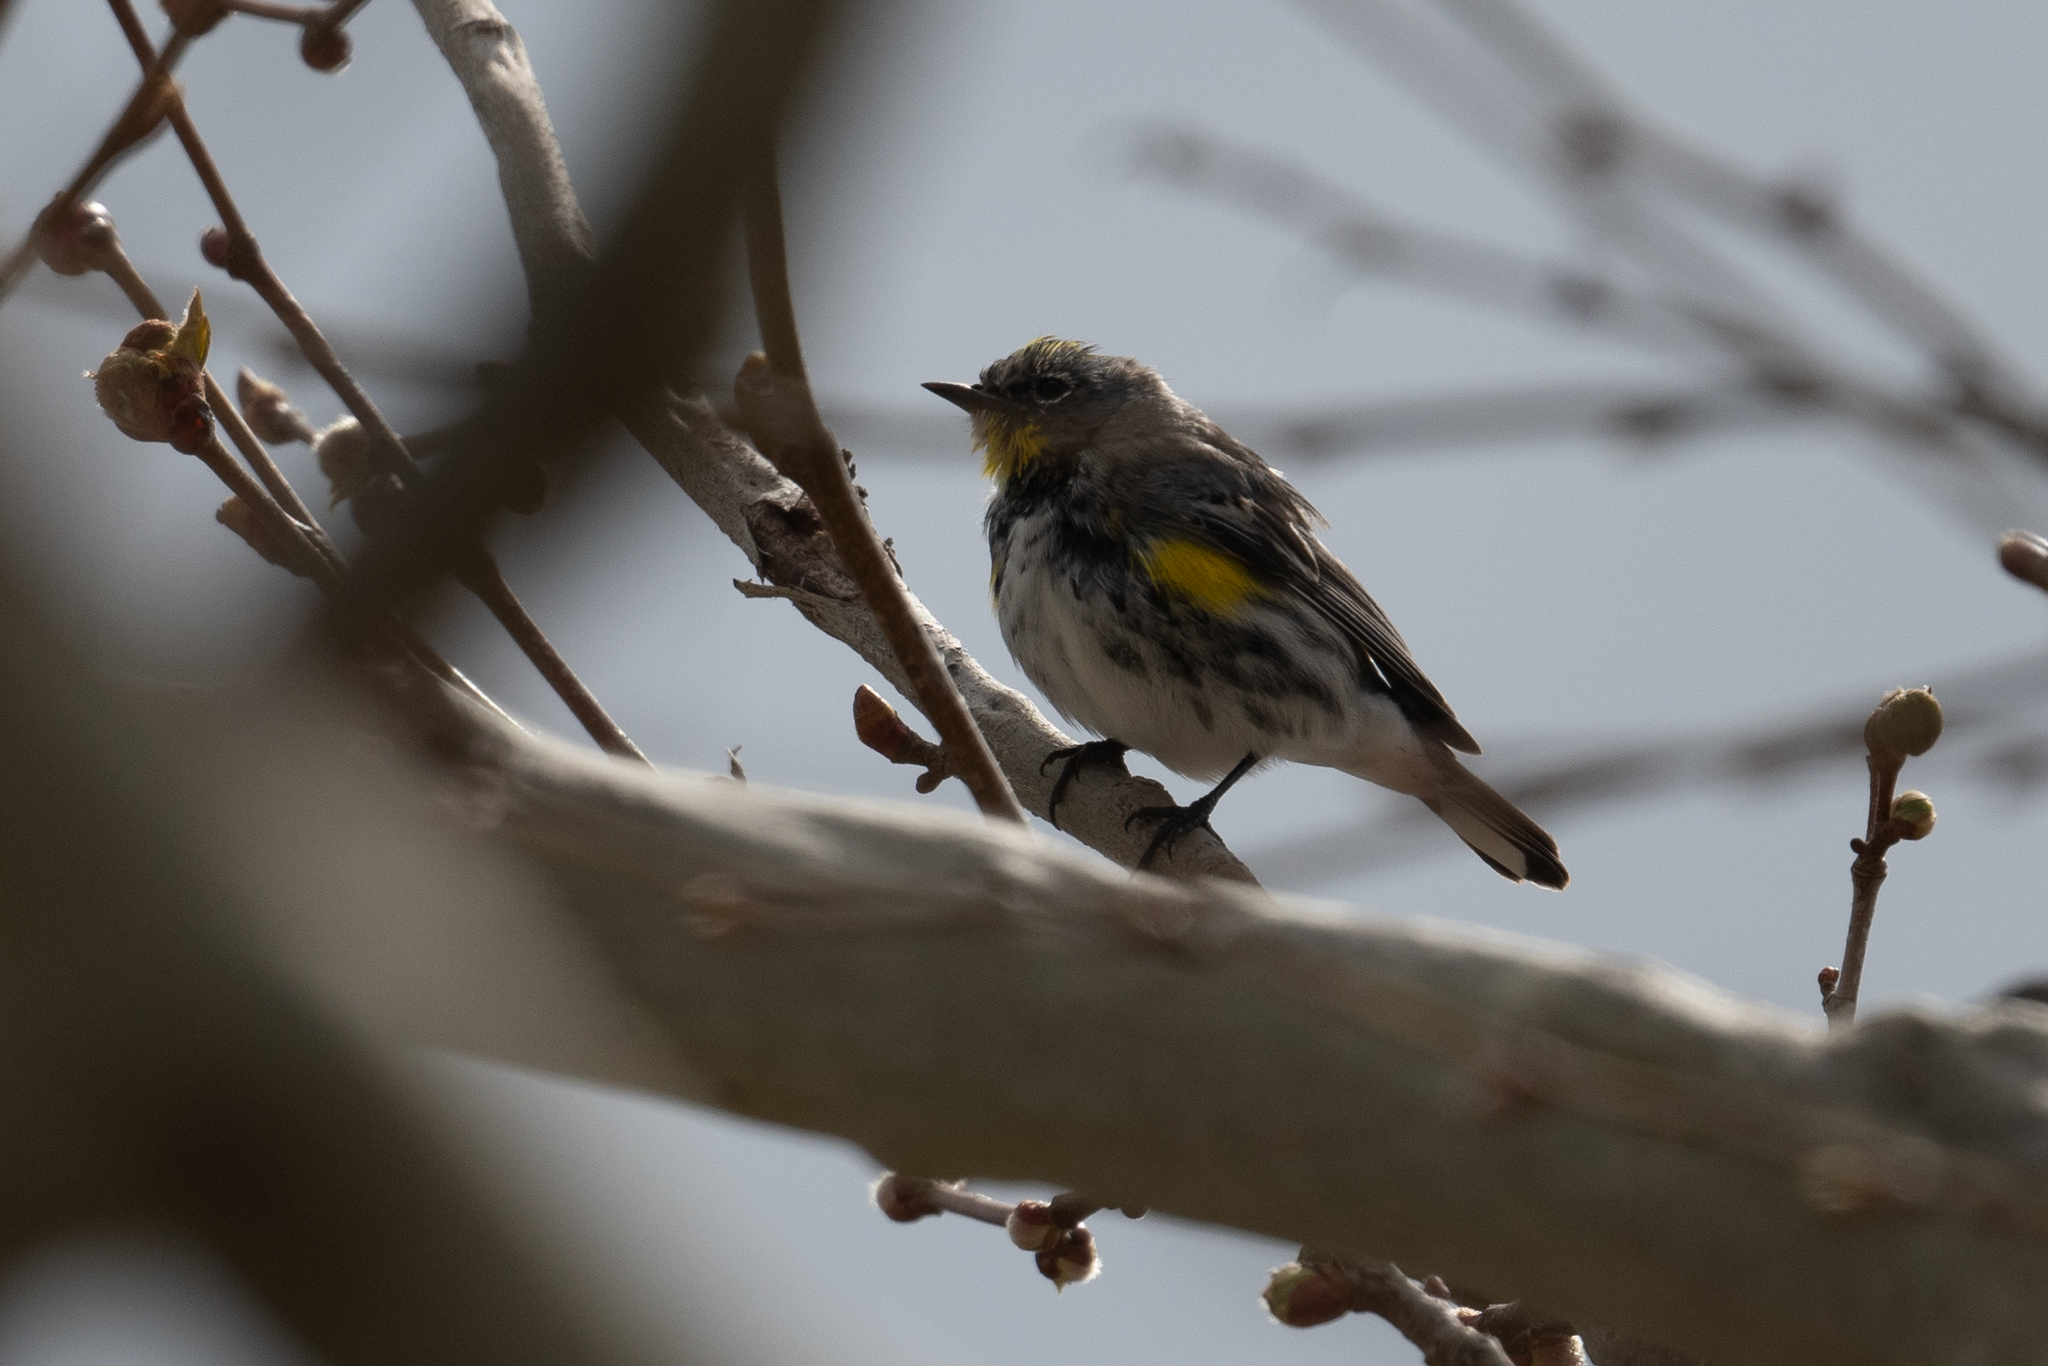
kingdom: Animalia
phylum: Chordata
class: Aves
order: Passeriformes
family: Parulidae
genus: Setophaga
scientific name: Setophaga auduboni
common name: Audubon's warbler
